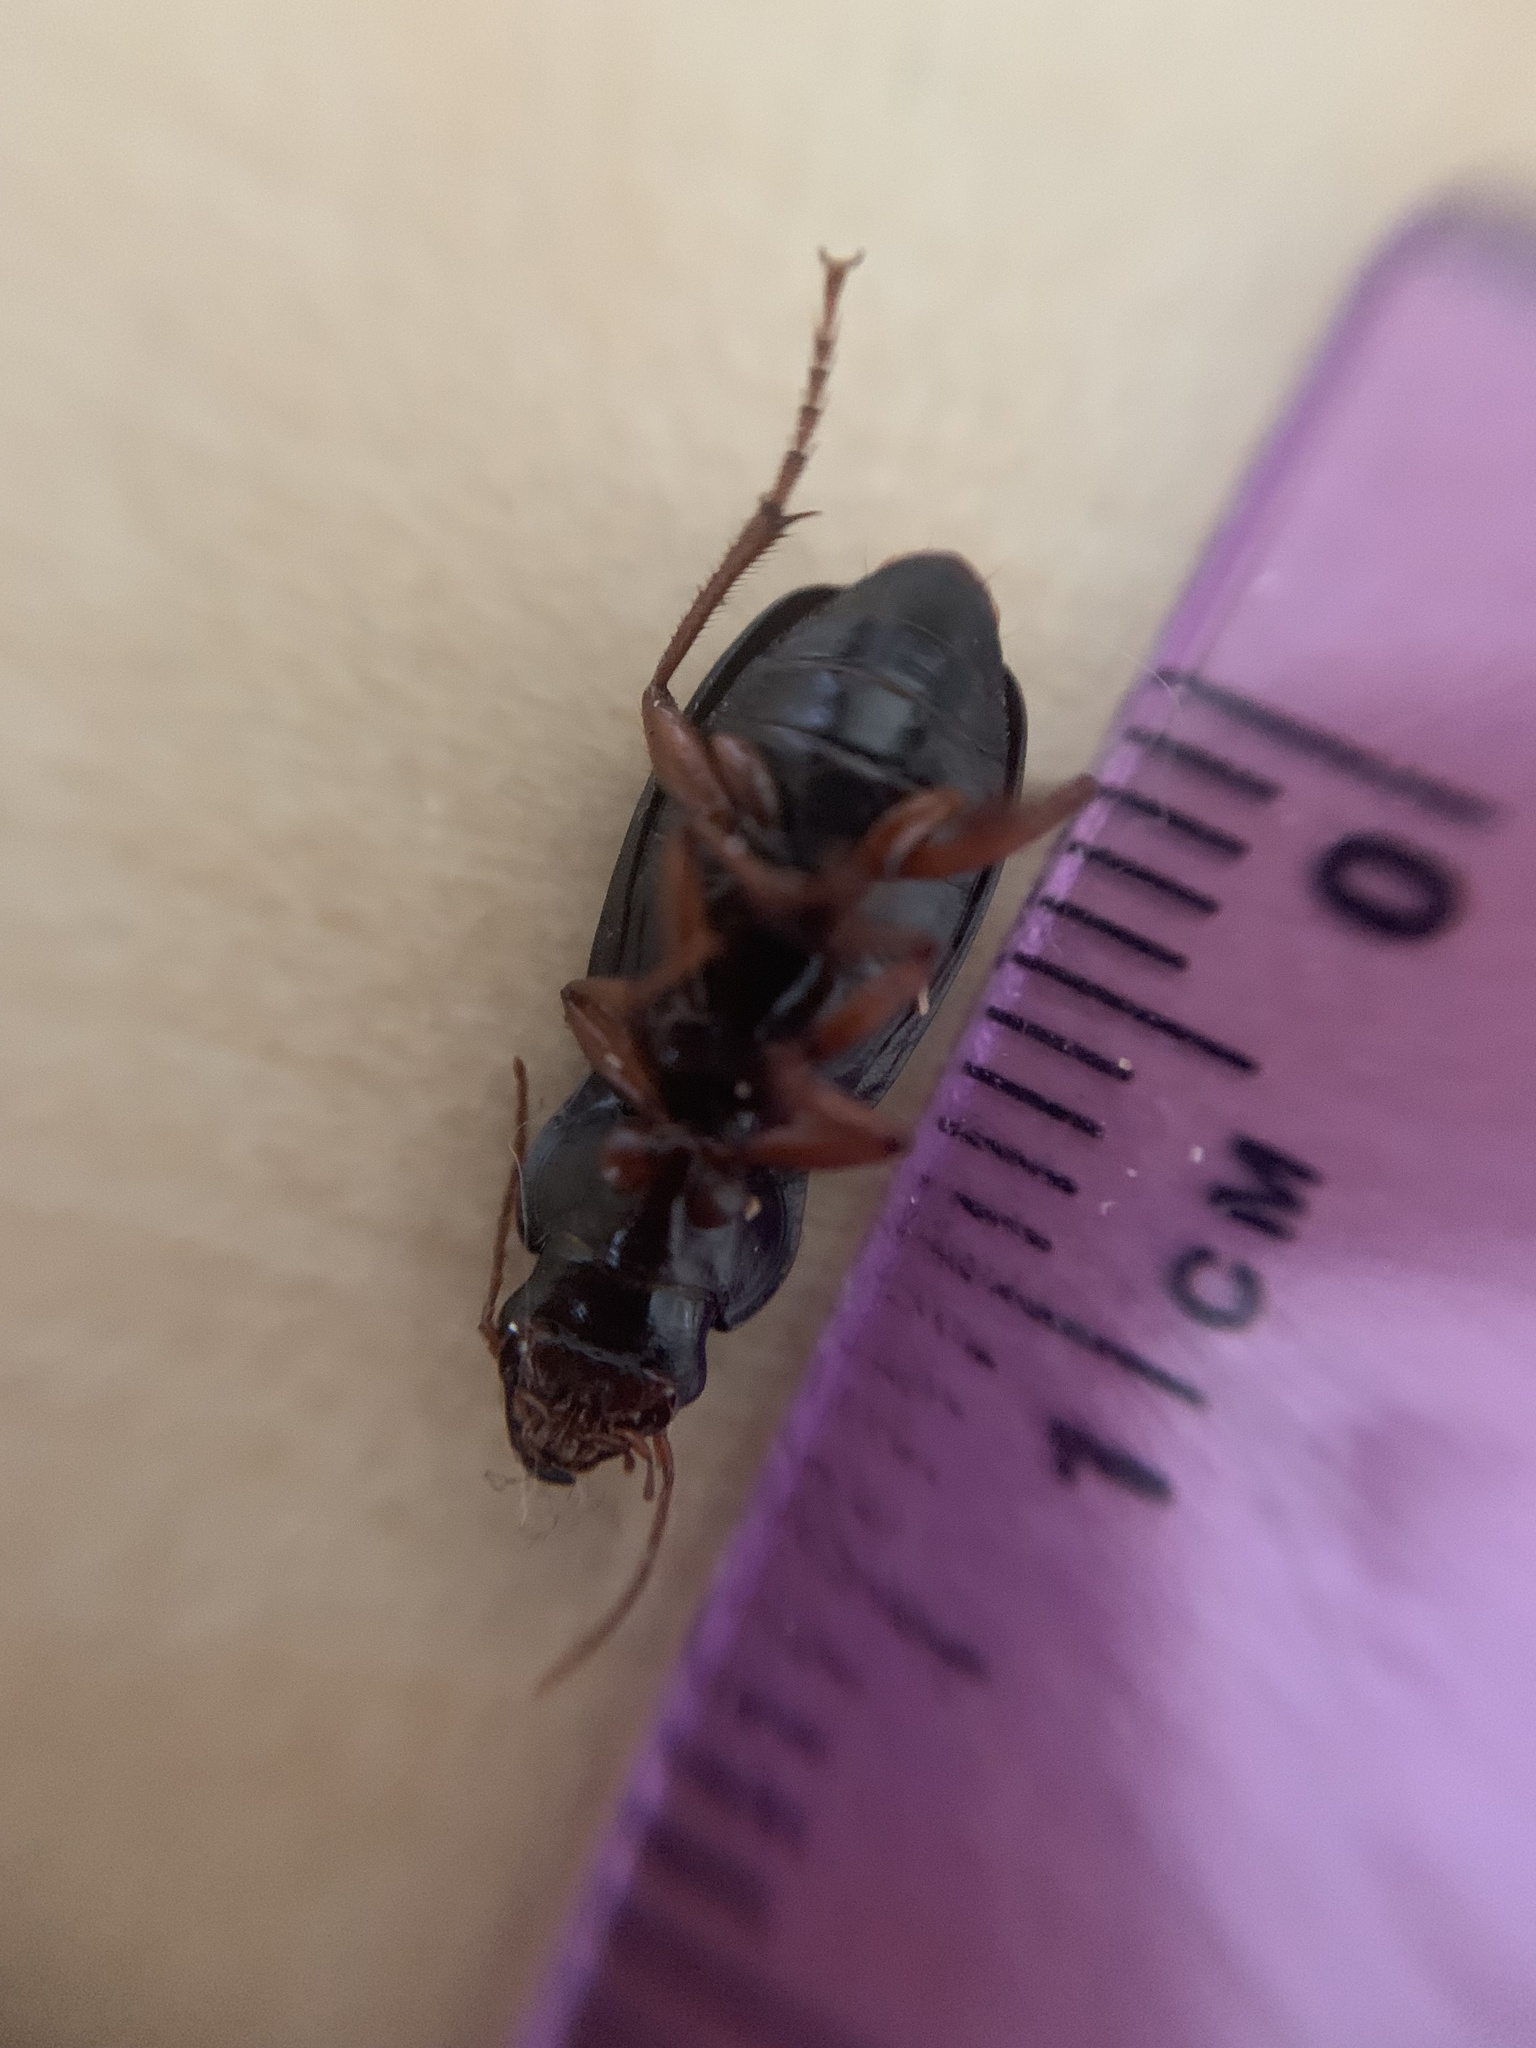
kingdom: Animalia
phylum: Arthropoda
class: Insecta
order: Coleoptera
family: Carabidae
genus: Harpalus
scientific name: Harpalus rufipes
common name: Strawberry harp ground beetle
